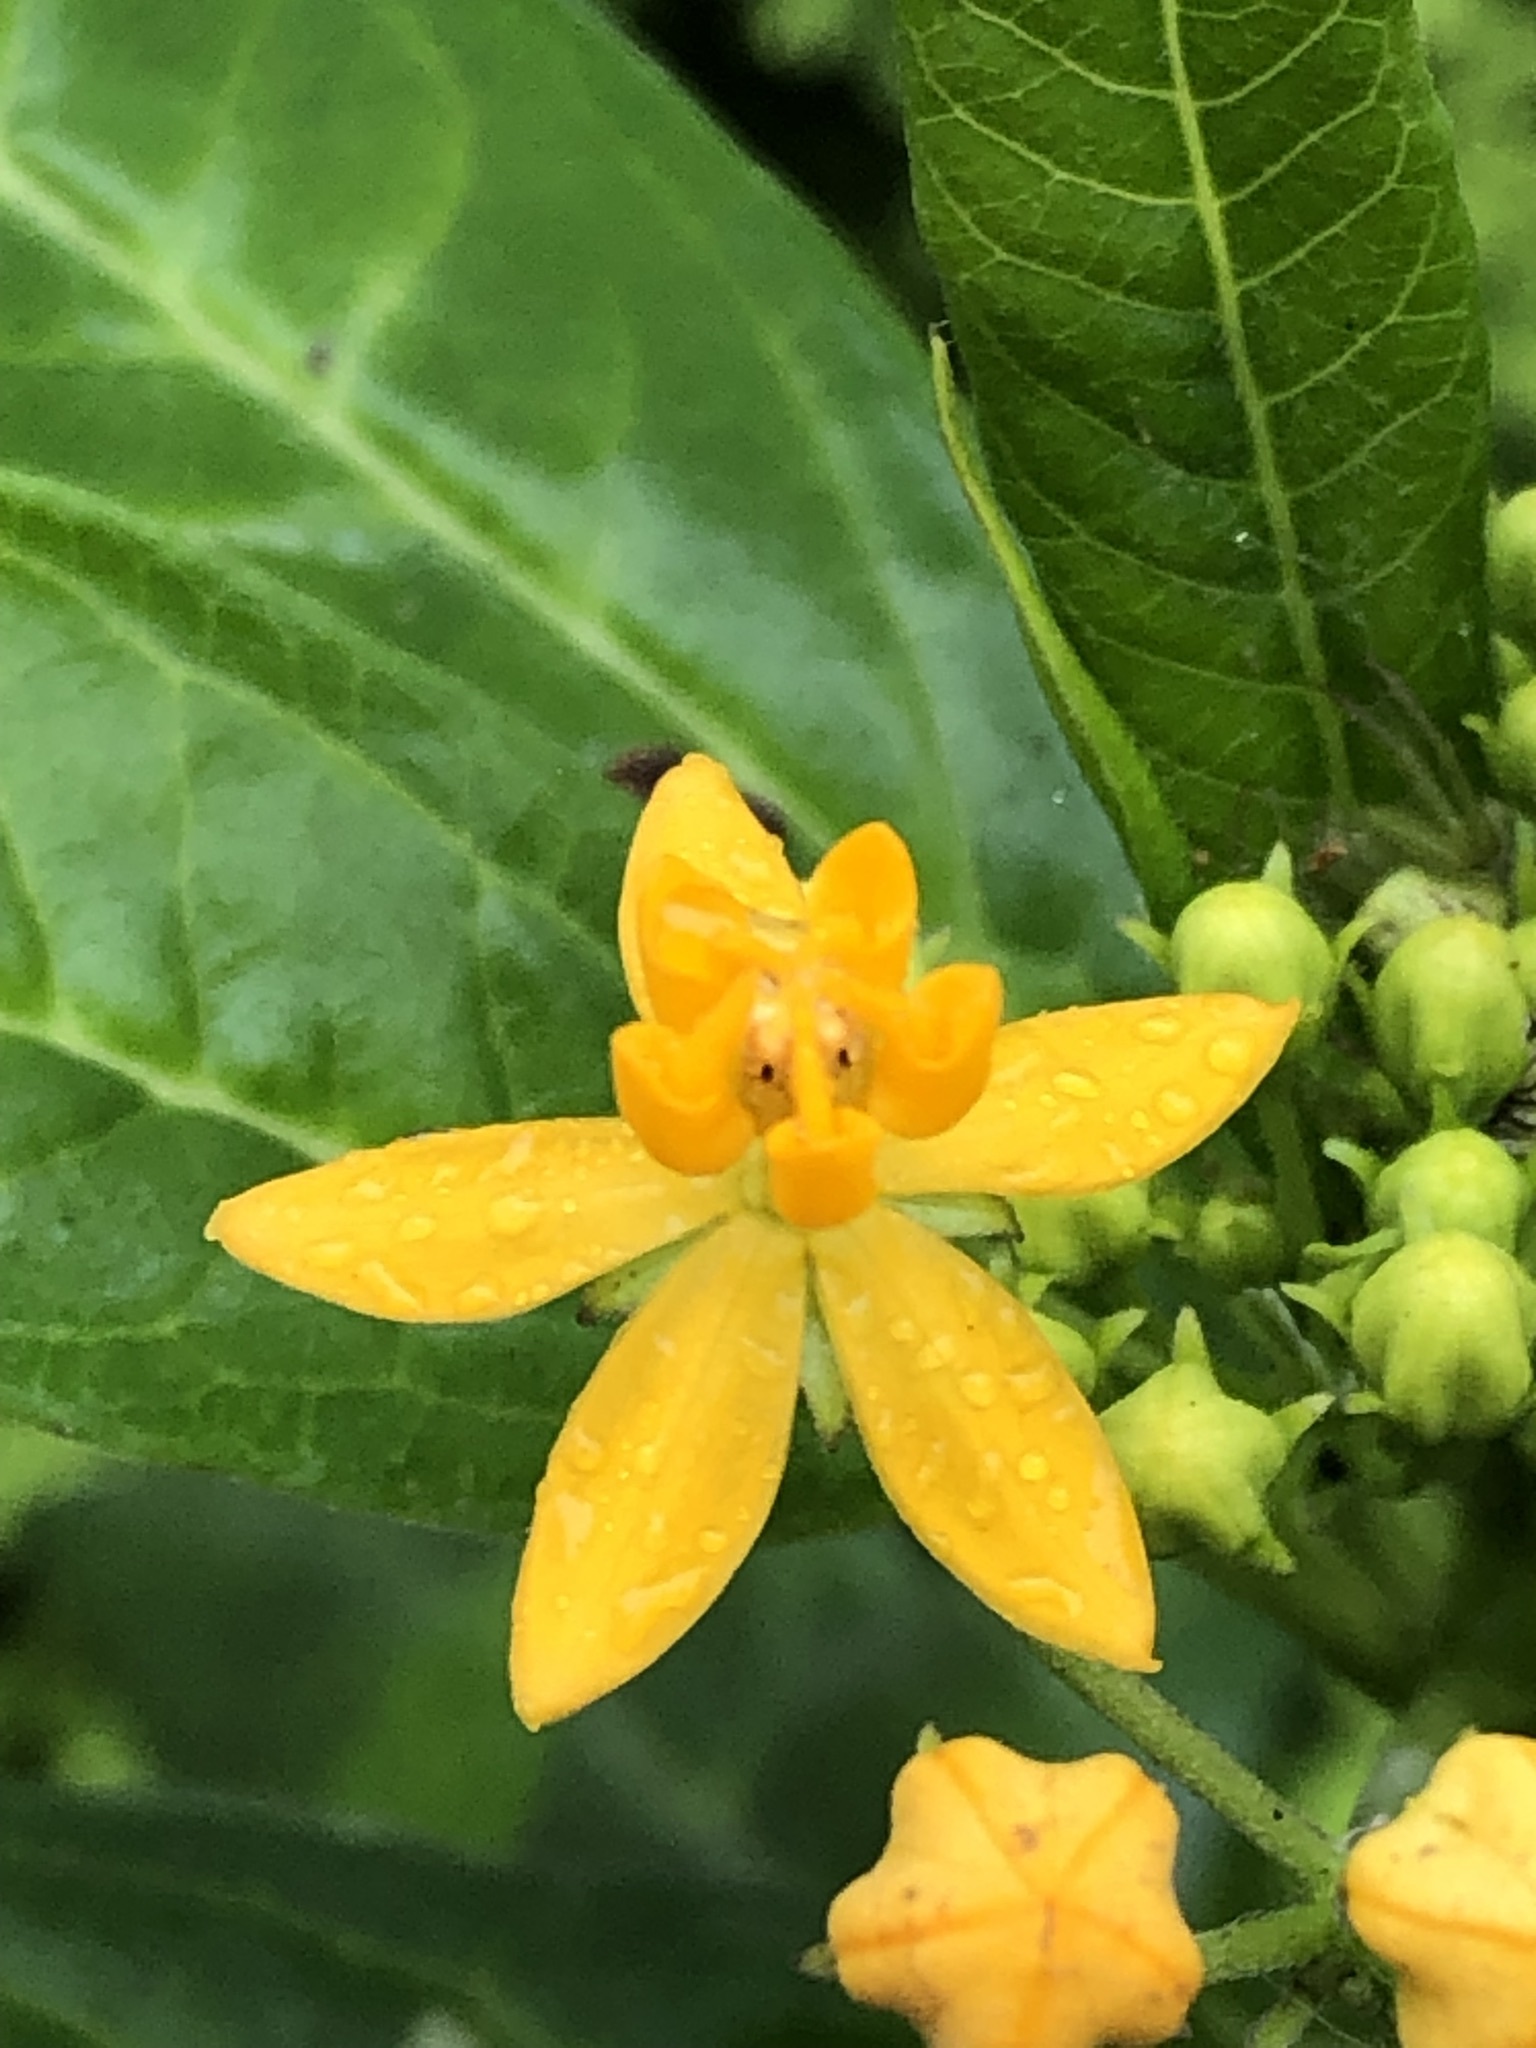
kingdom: Plantae
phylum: Tracheophyta
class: Magnoliopsida
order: Gentianales
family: Apocynaceae
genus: Asclepias
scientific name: Asclepias curassavica
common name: Bloodflower
